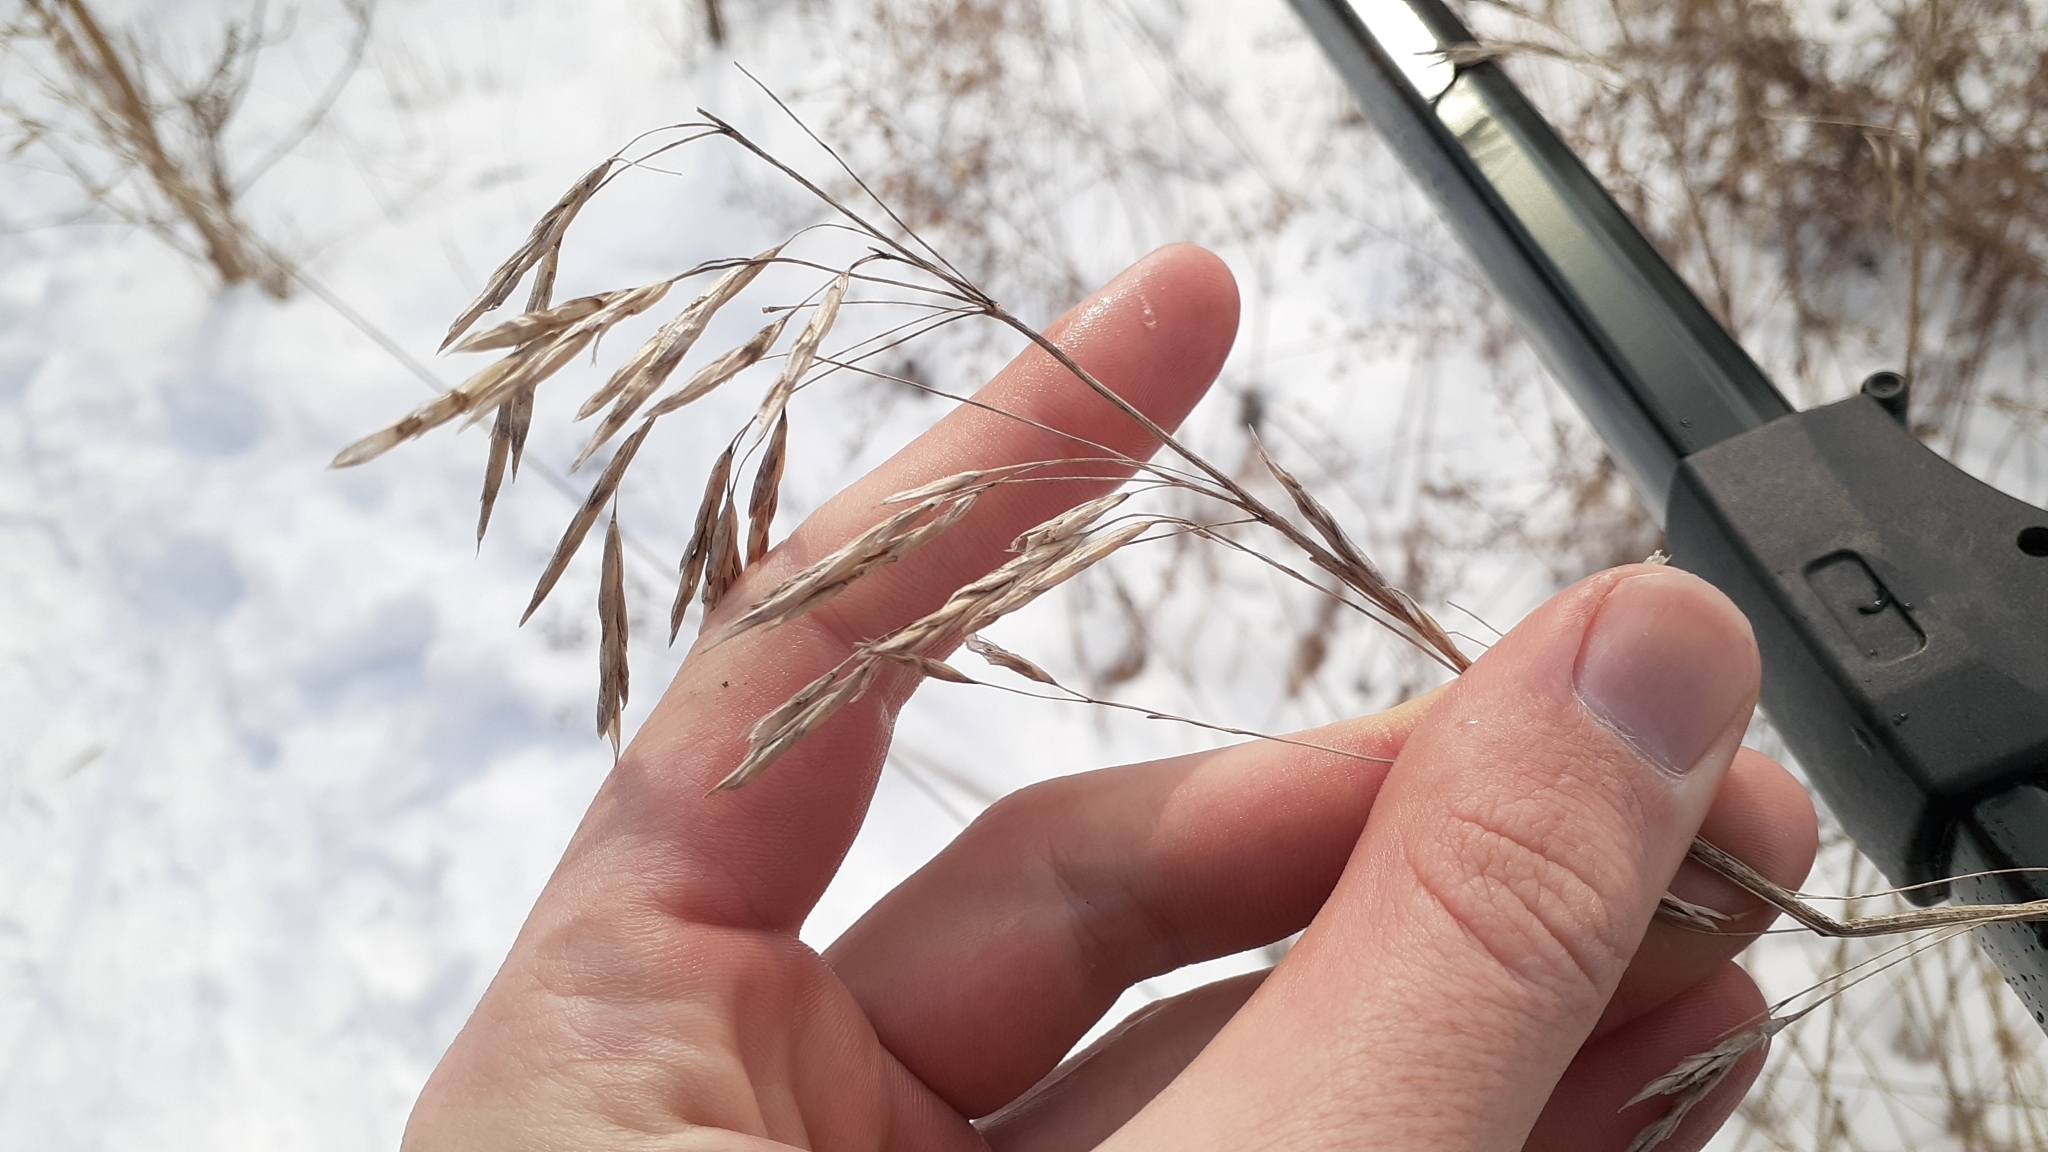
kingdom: Plantae
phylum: Tracheophyta
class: Liliopsida
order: Poales
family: Poaceae
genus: Bromus
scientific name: Bromus inermis
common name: Smooth brome
